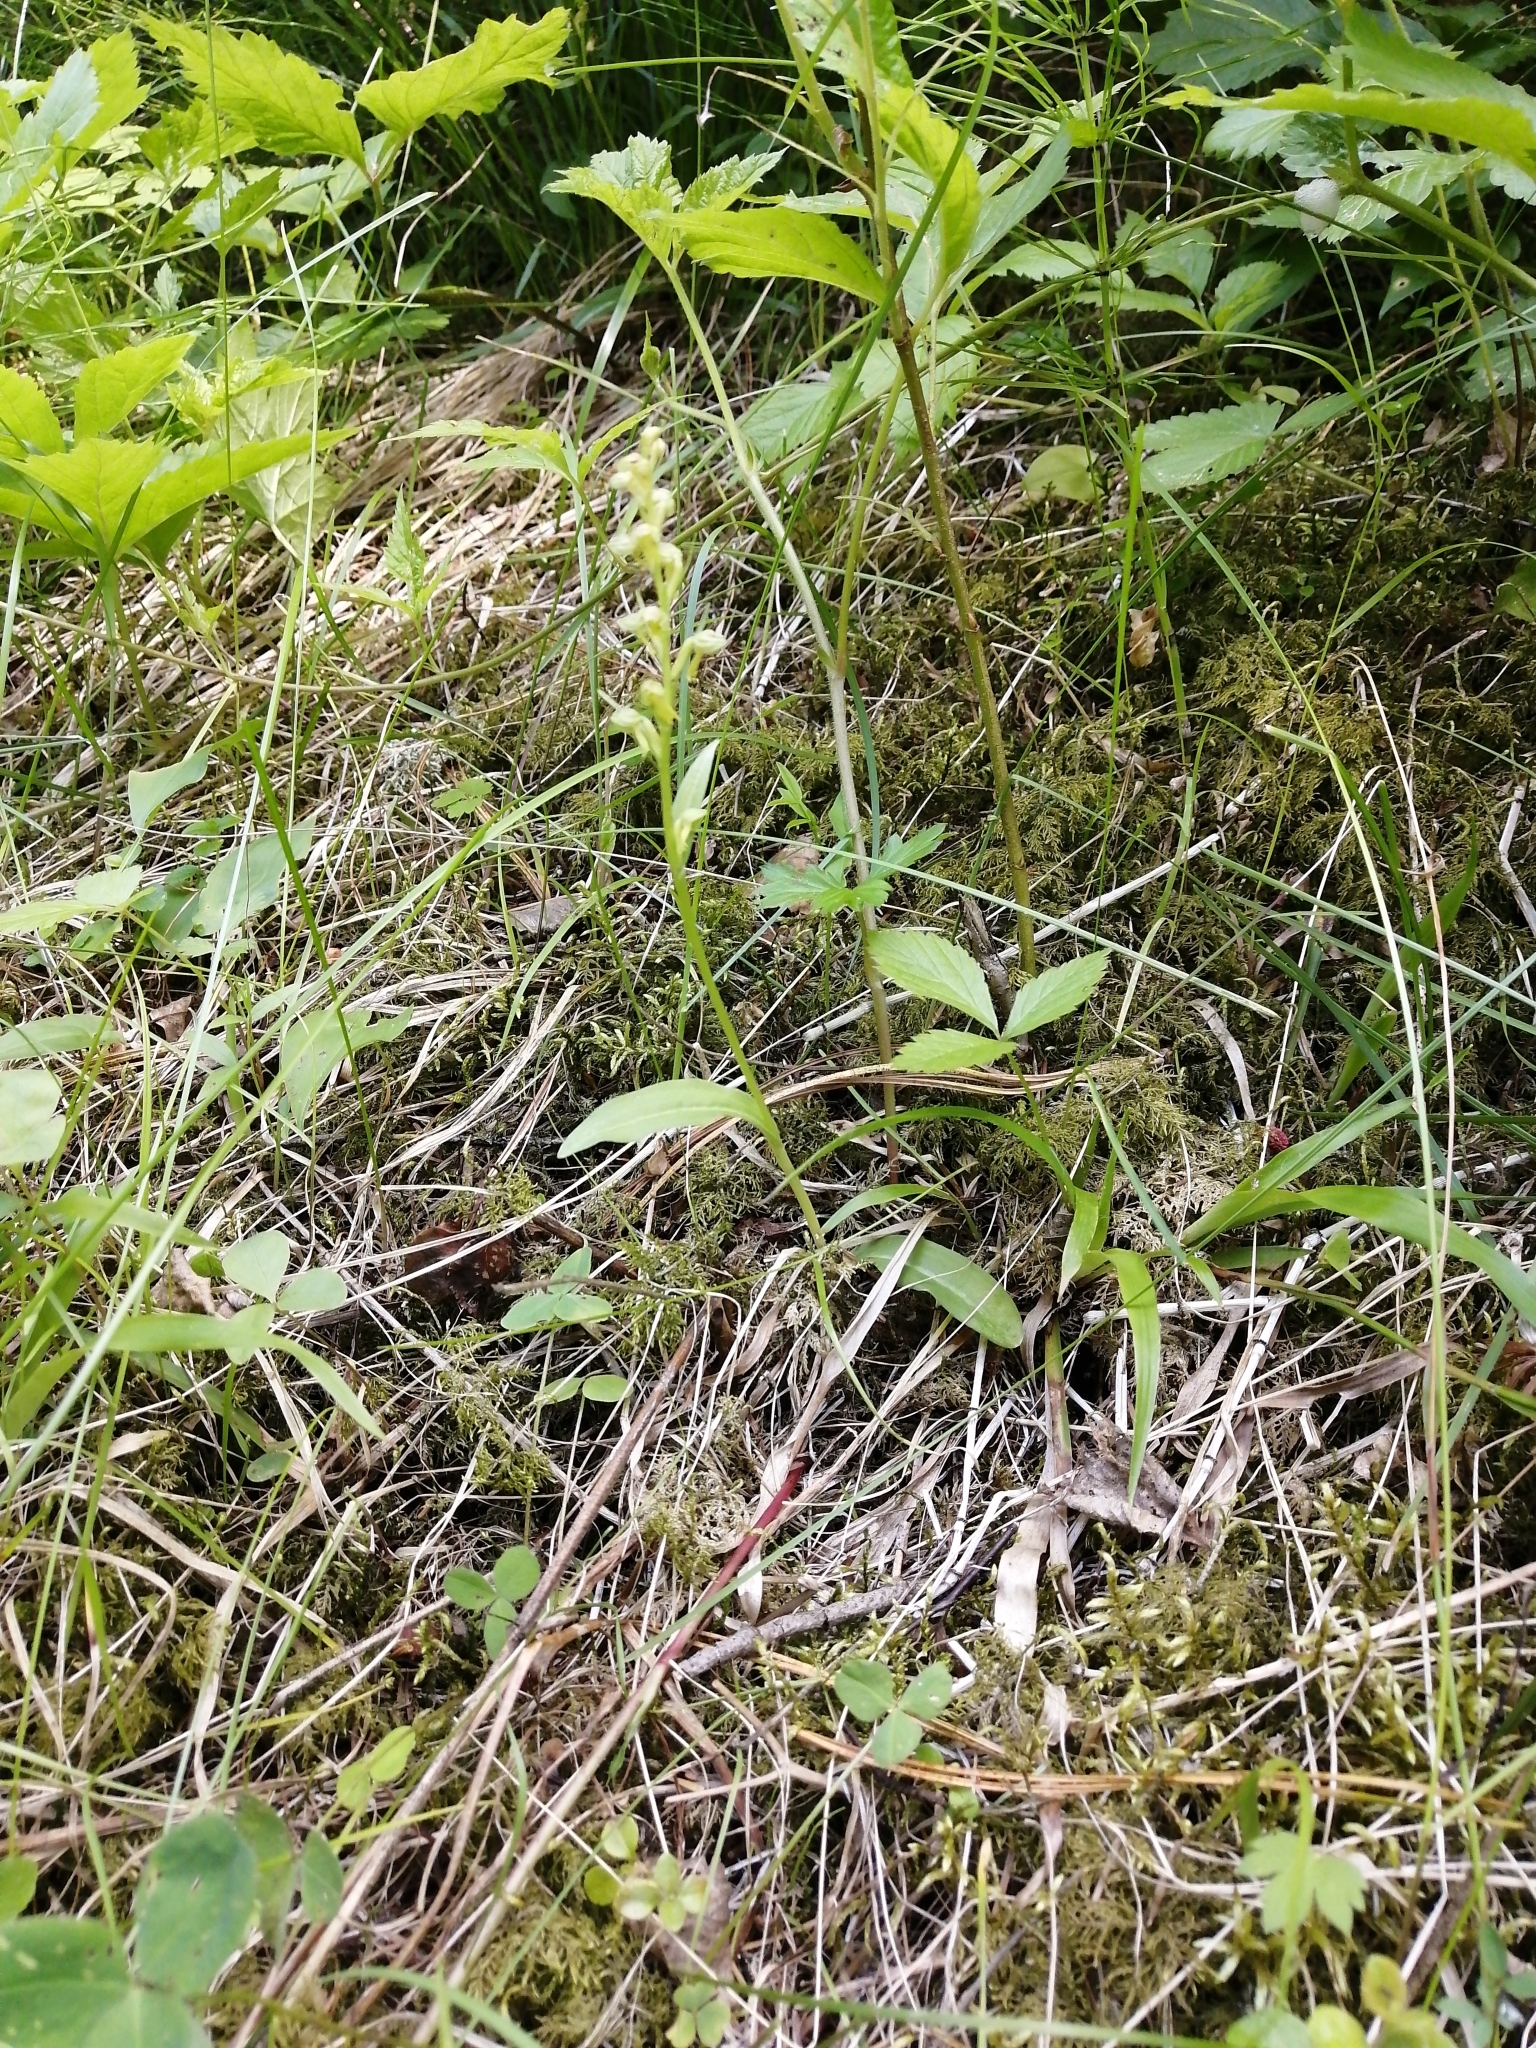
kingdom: Plantae
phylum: Tracheophyta
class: Liliopsida
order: Asparagales
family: Orchidaceae
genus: Dactylorhiza
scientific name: Dactylorhiza viridis
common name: Longbract frog orchid
